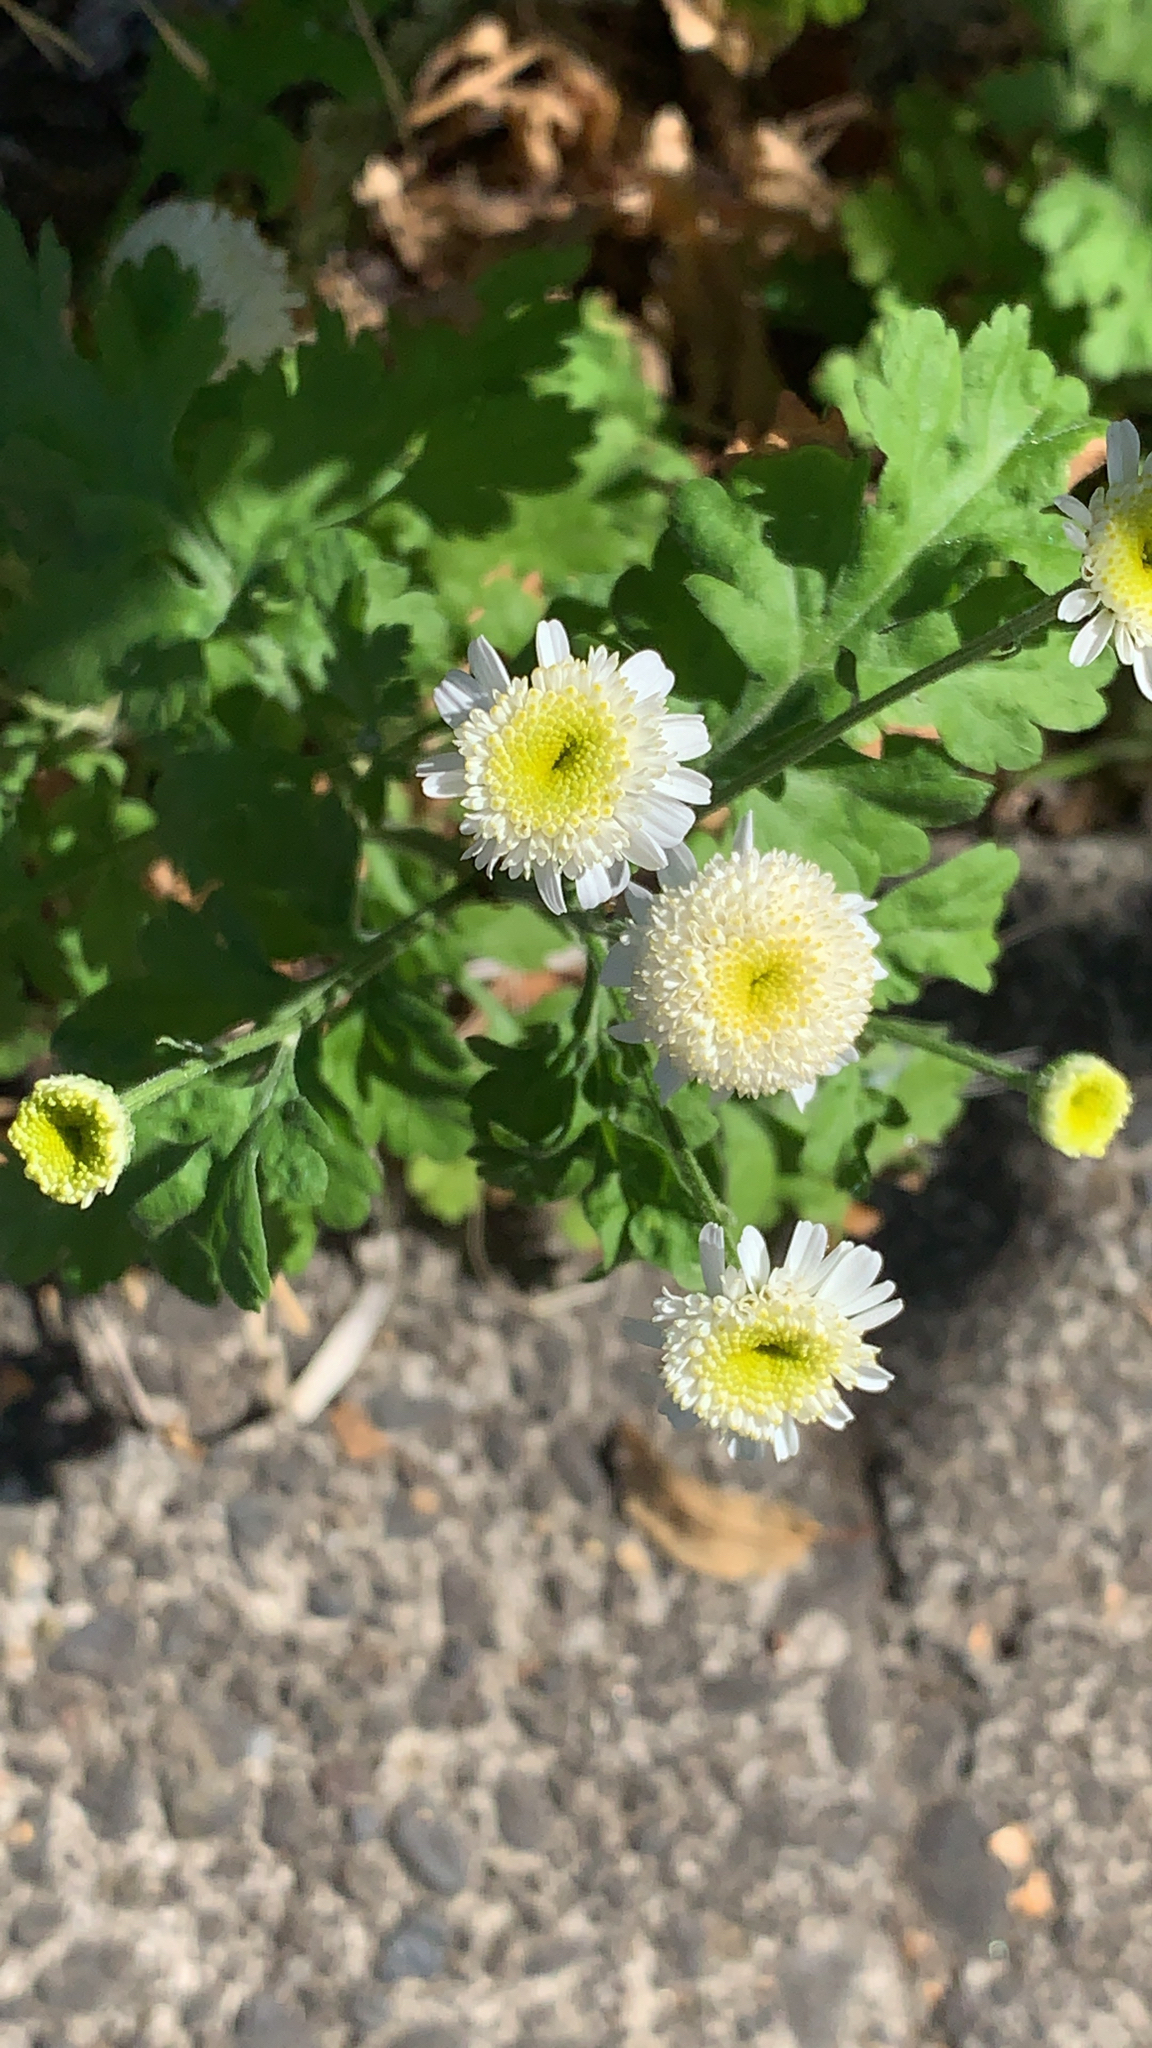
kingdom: Plantae
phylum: Tracheophyta
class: Magnoliopsida
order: Asterales
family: Asteraceae
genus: Tanacetum
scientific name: Tanacetum parthenium
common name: Feverfew
